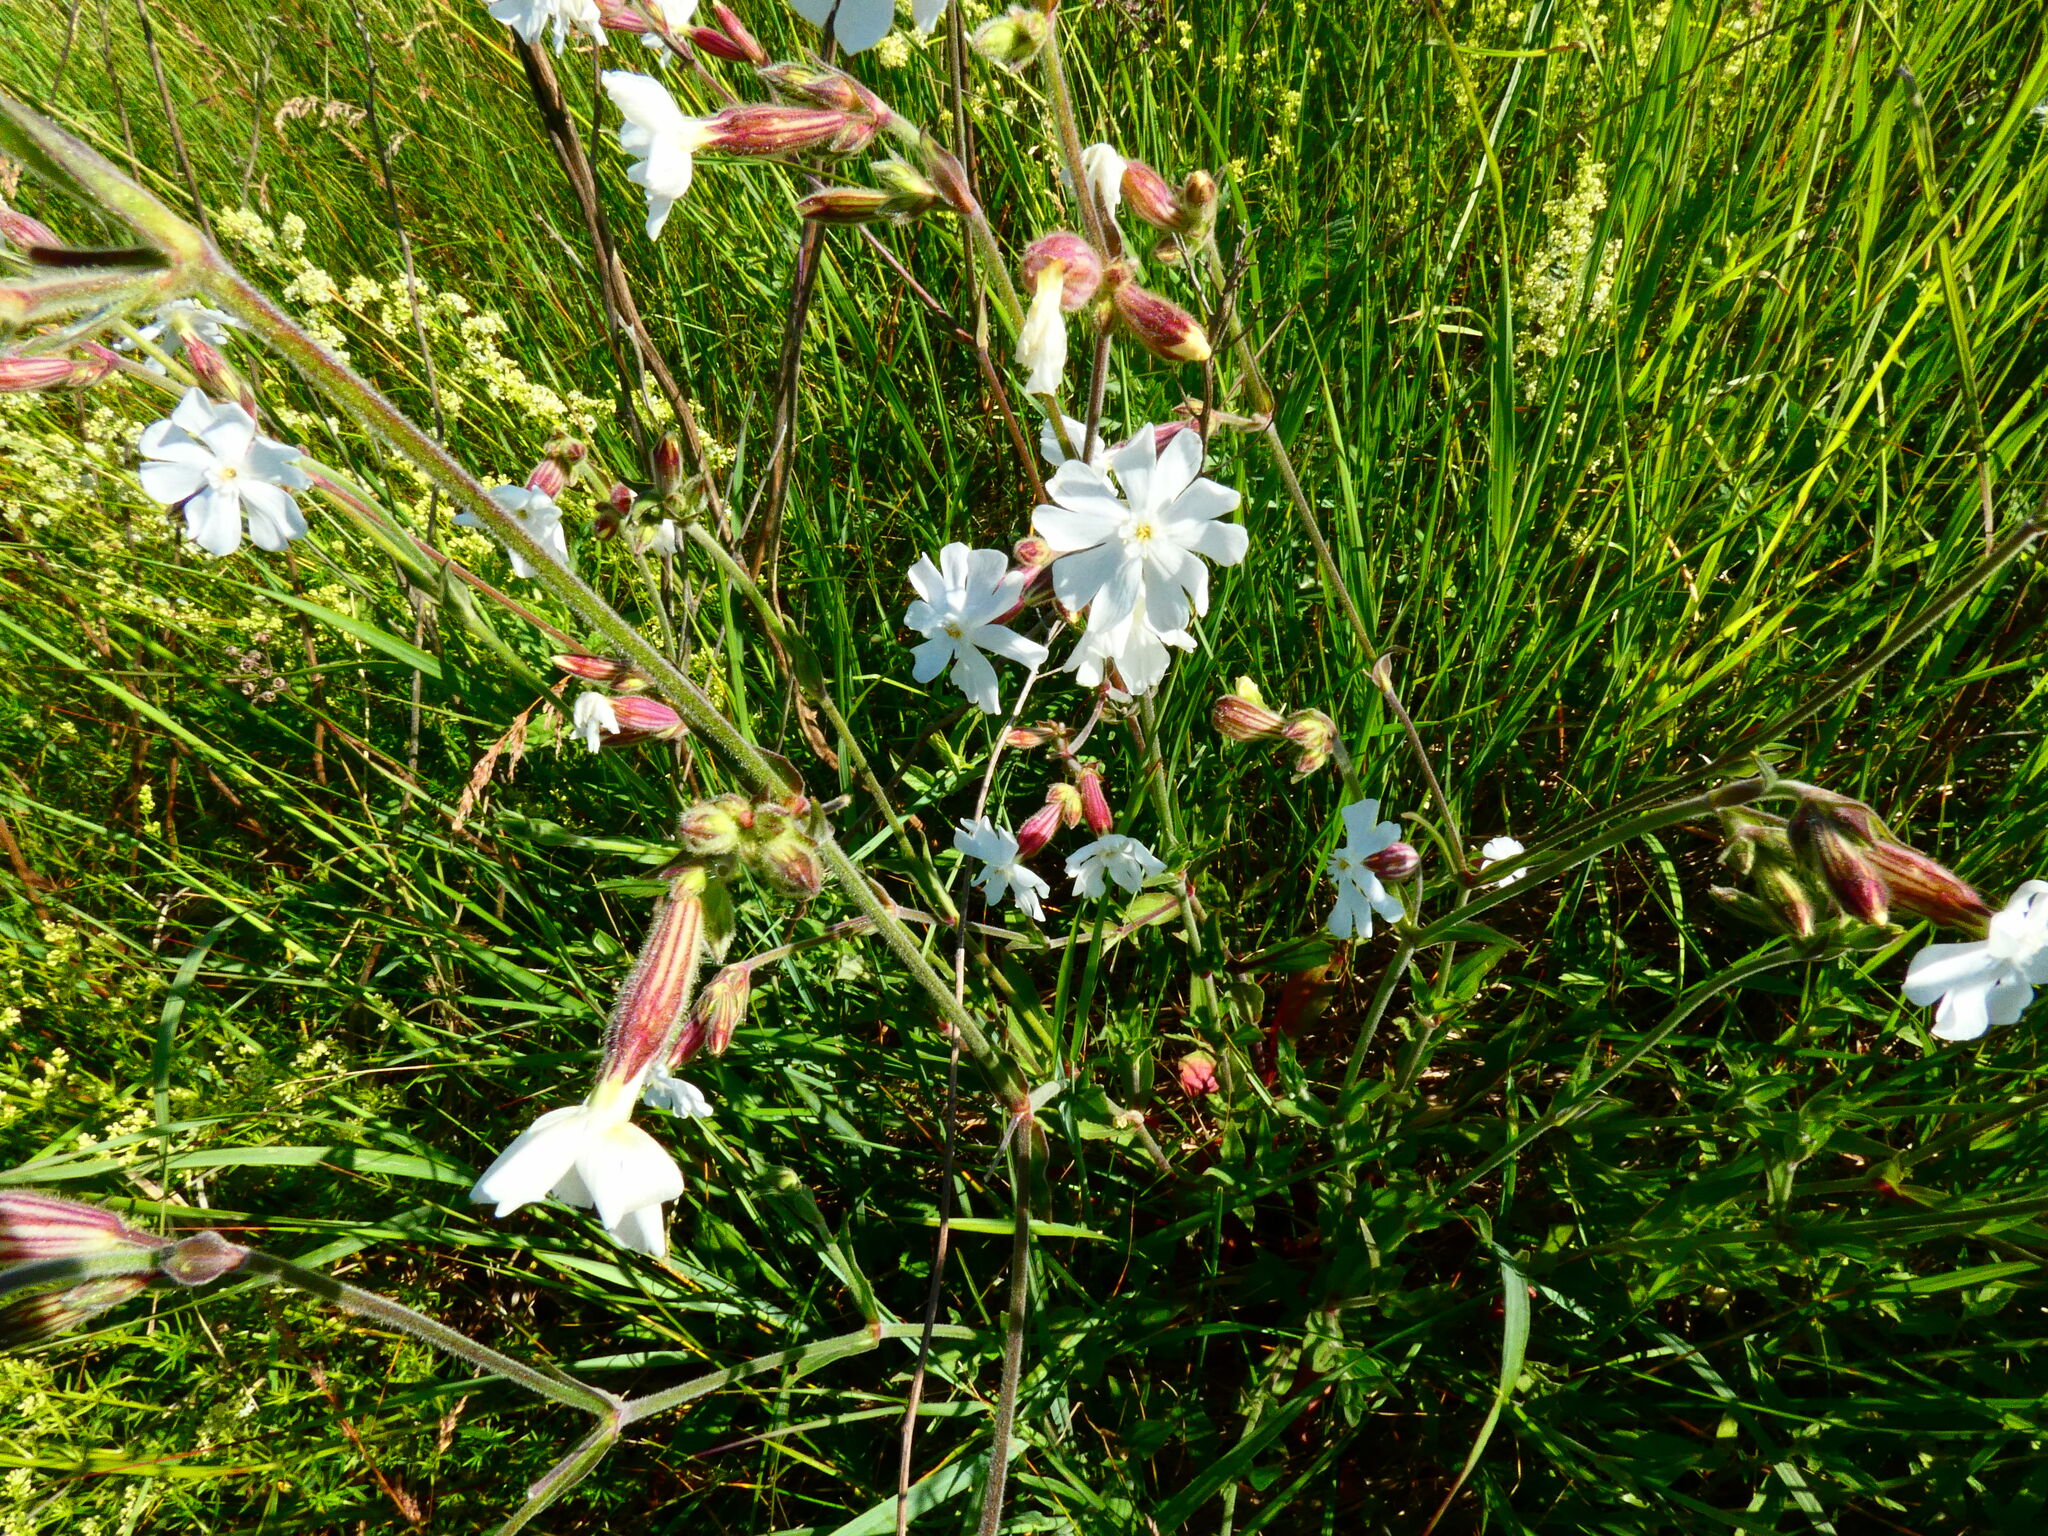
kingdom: Plantae
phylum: Tracheophyta
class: Magnoliopsida
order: Caryophyllales
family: Caryophyllaceae
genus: Silene
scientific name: Silene latifolia
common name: White campion
